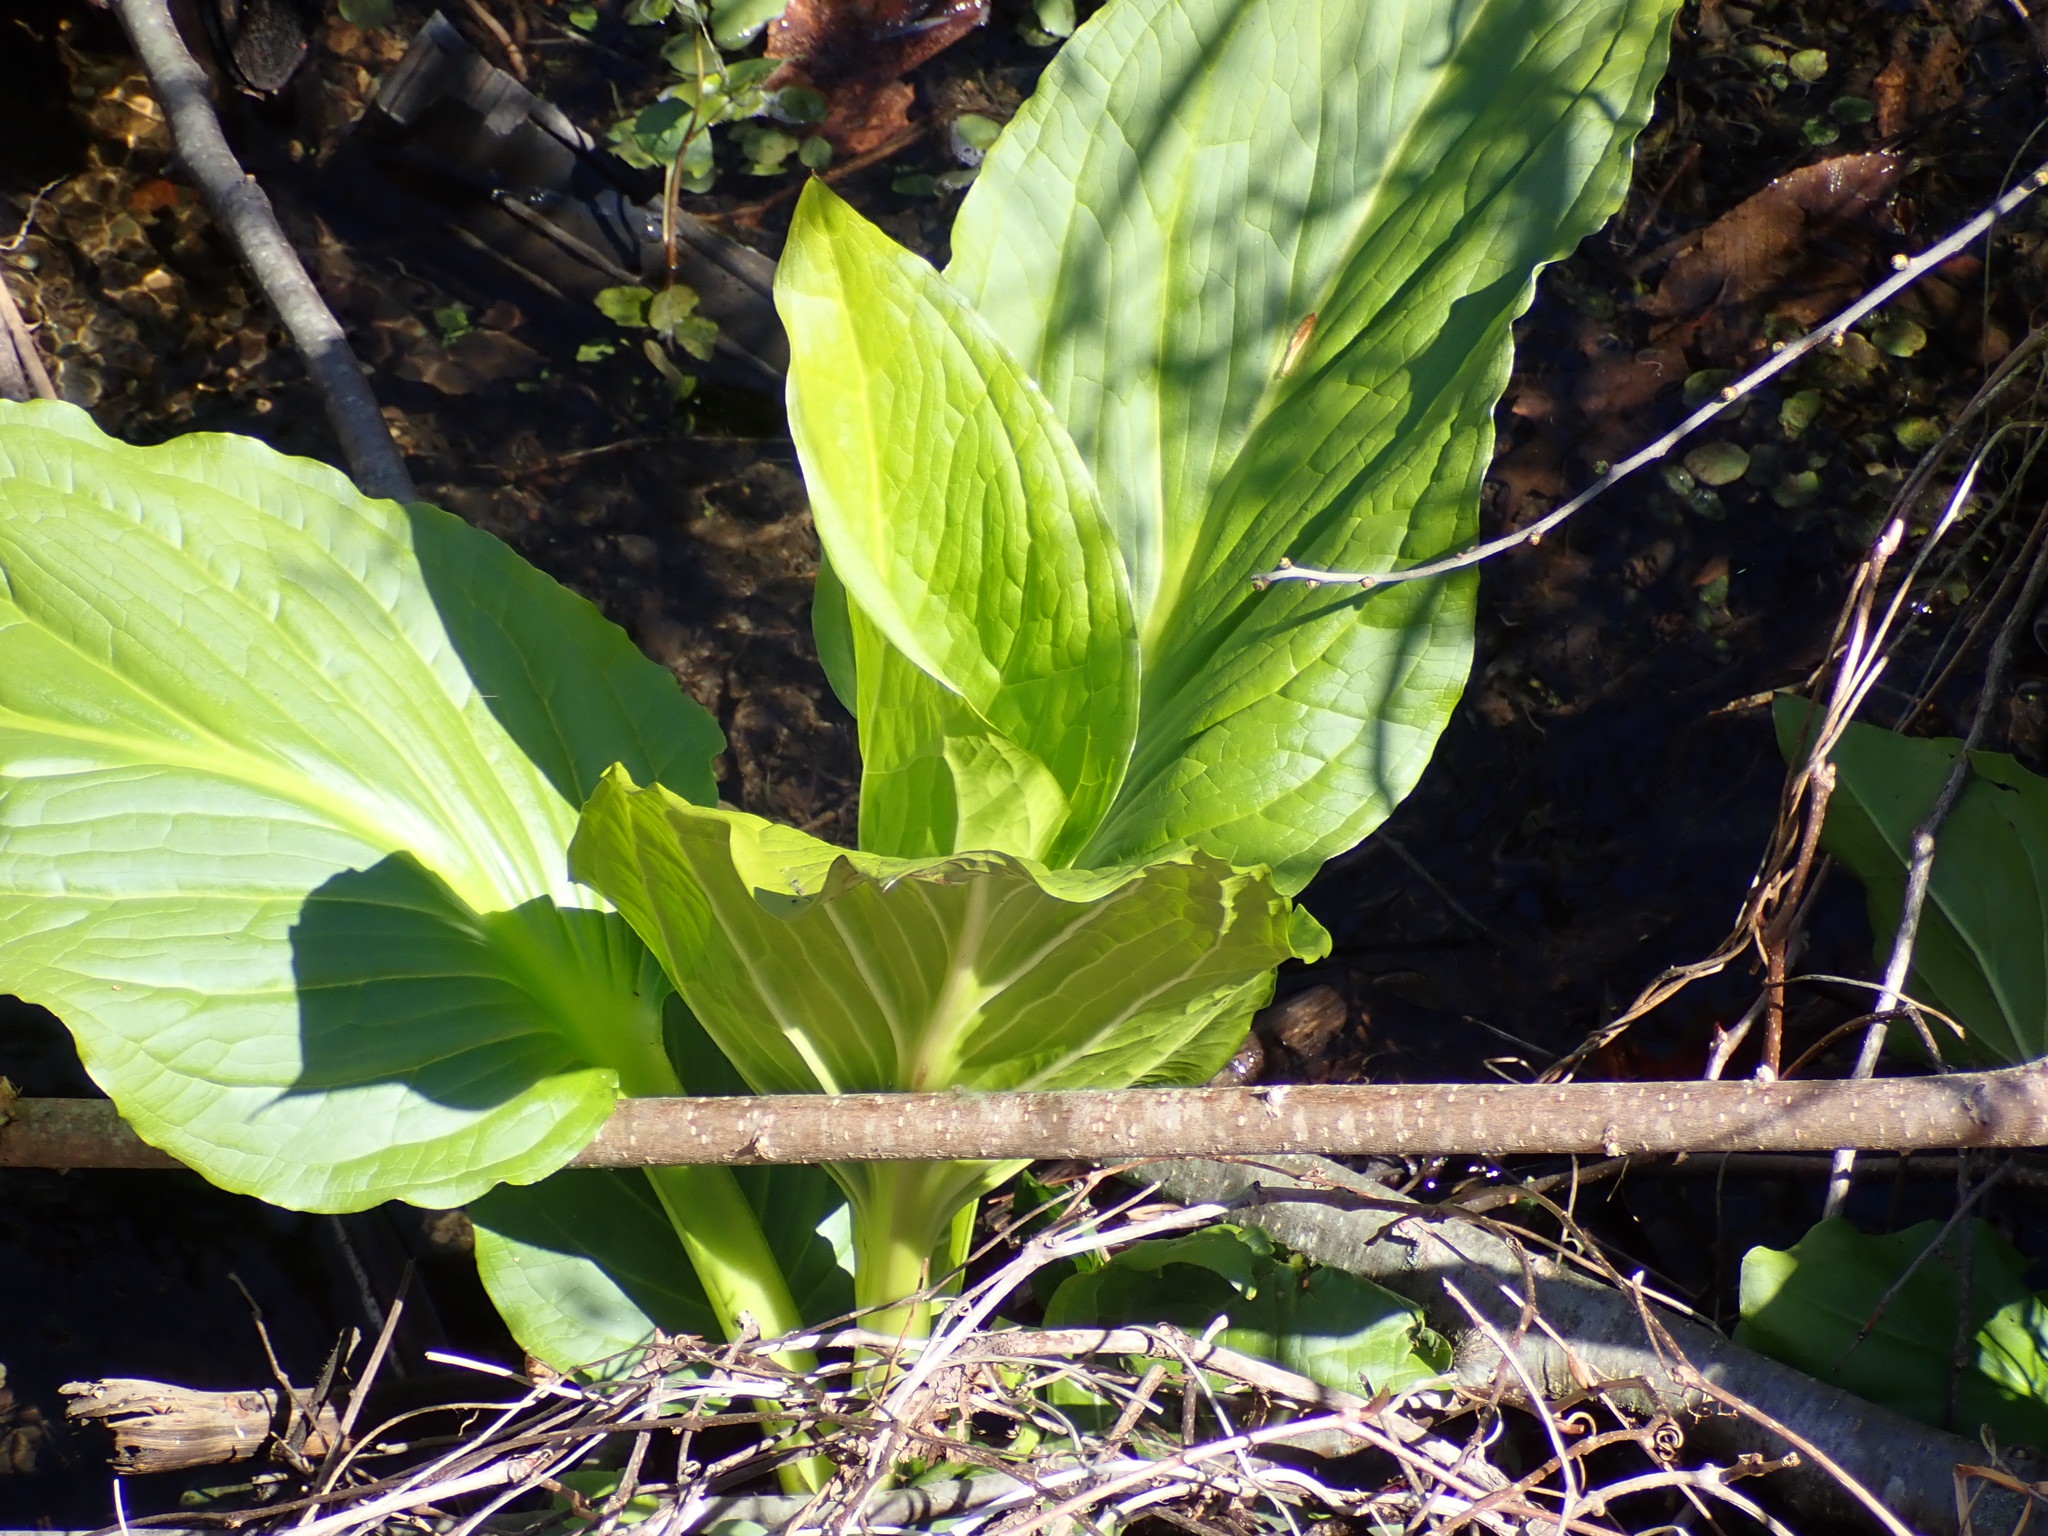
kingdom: Plantae
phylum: Tracheophyta
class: Liliopsida
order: Alismatales
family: Araceae
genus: Symplocarpus
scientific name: Symplocarpus foetidus
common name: Eastern skunk cabbage
